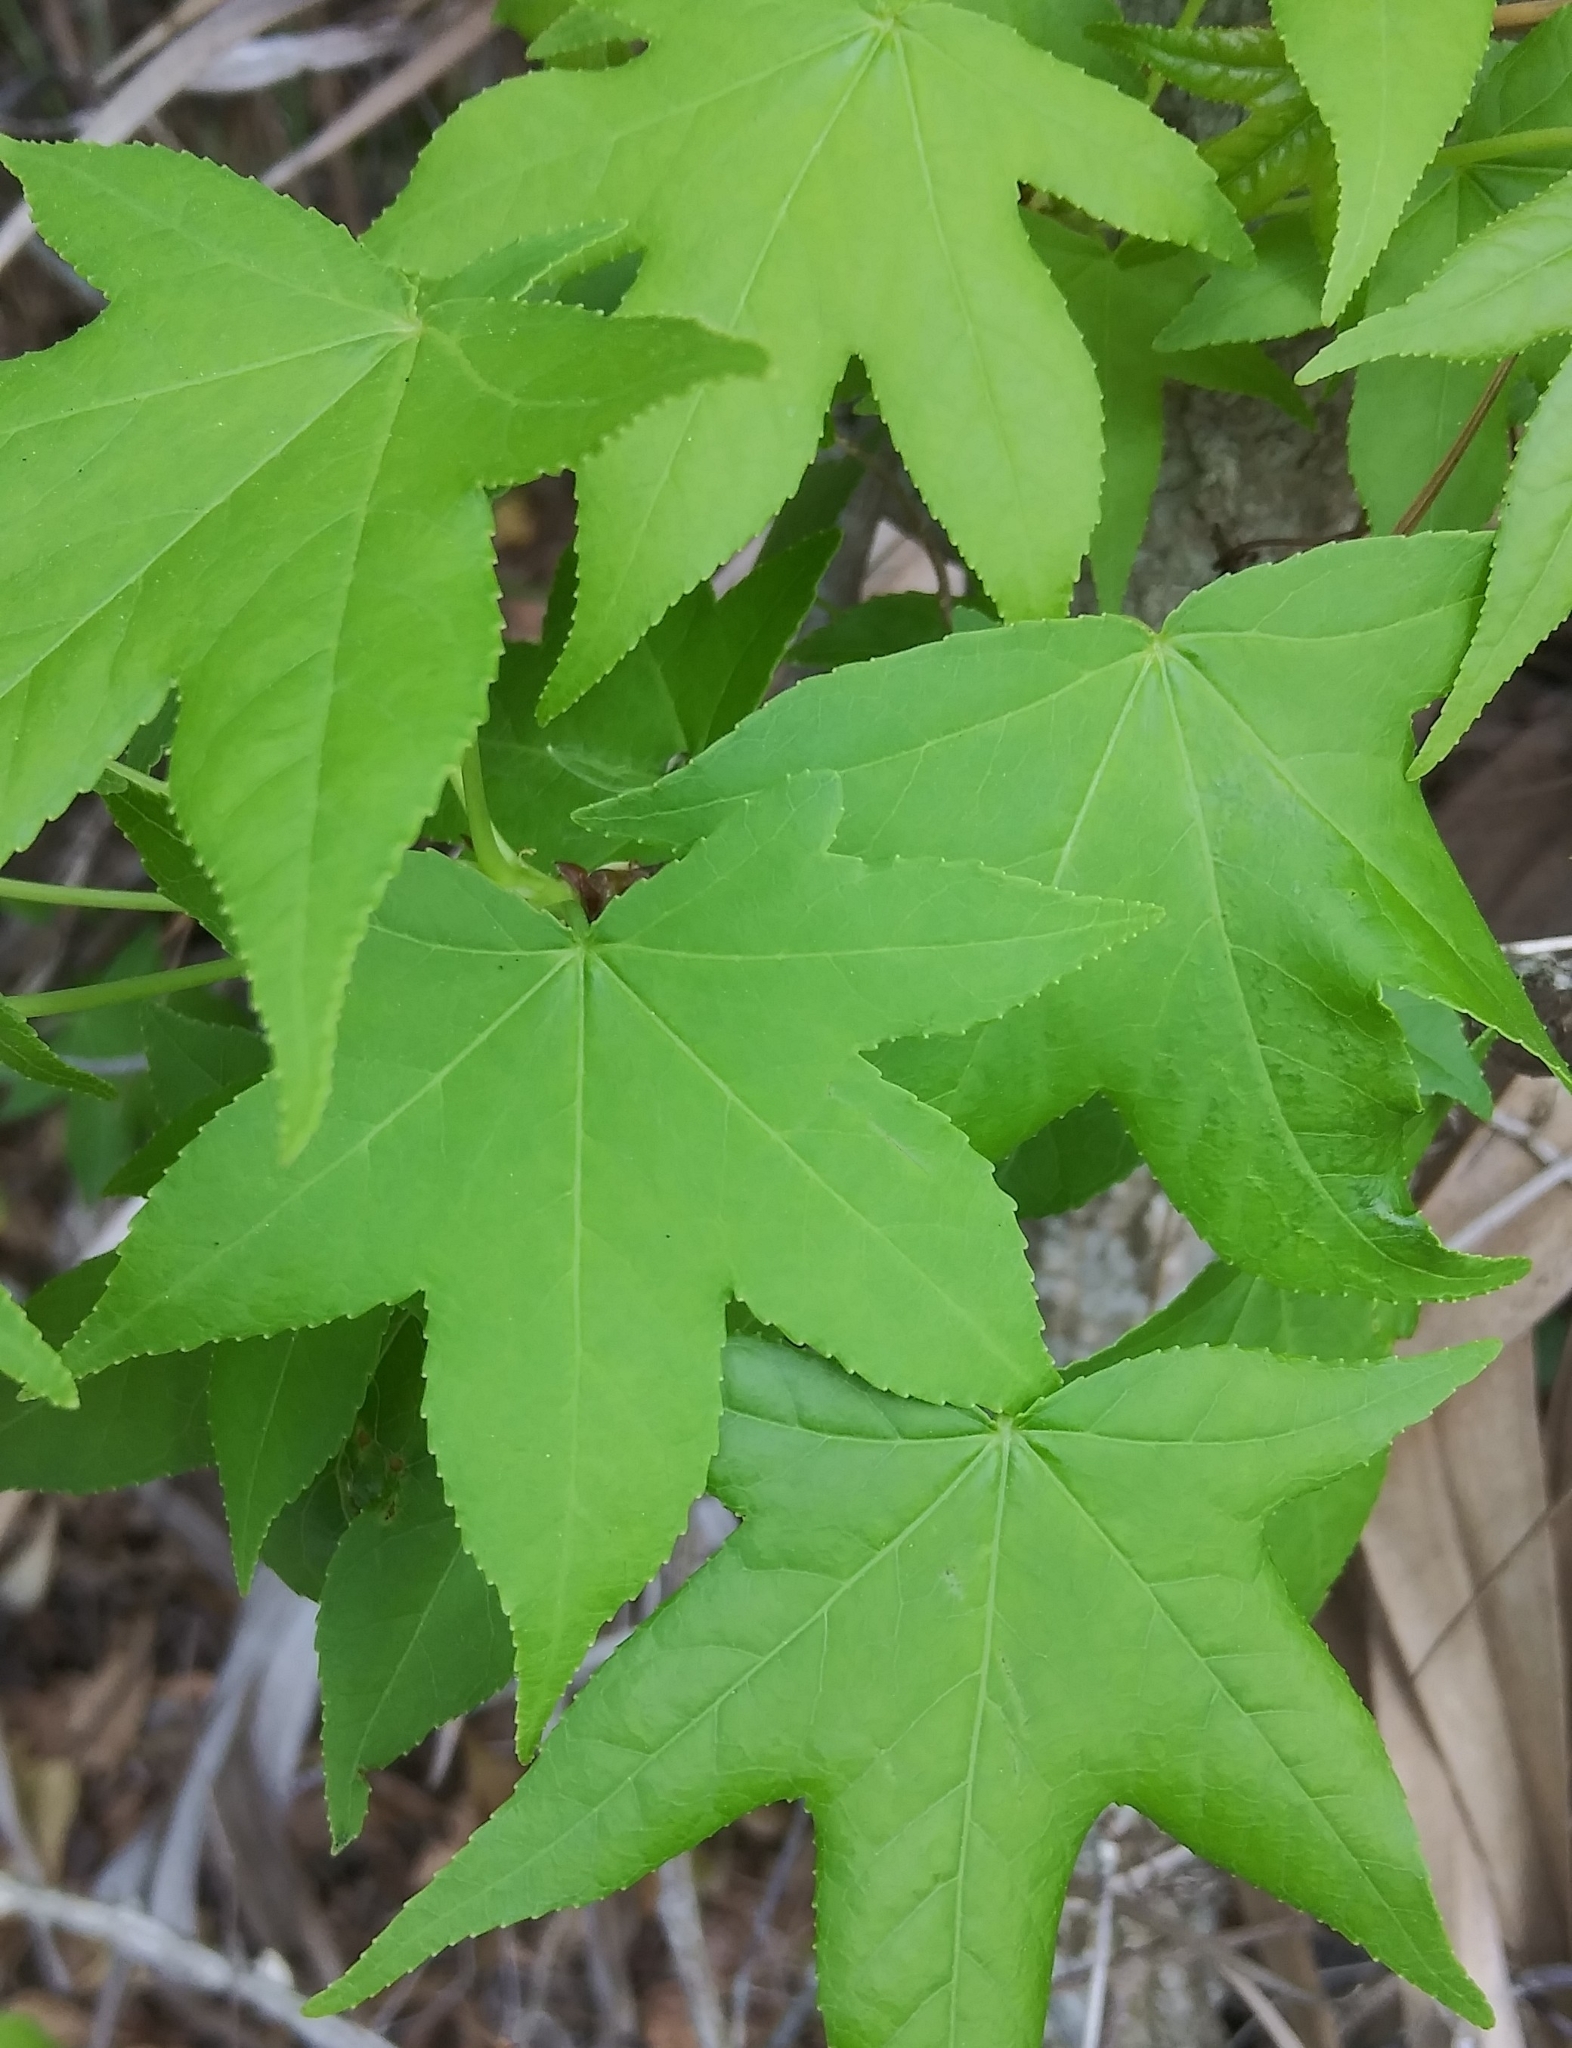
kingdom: Plantae
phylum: Tracheophyta
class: Magnoliopsida
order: Saxifragales
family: Altingiaceae
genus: Liquidambar
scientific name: Liquidambar styraciflua
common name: Sweet gum
